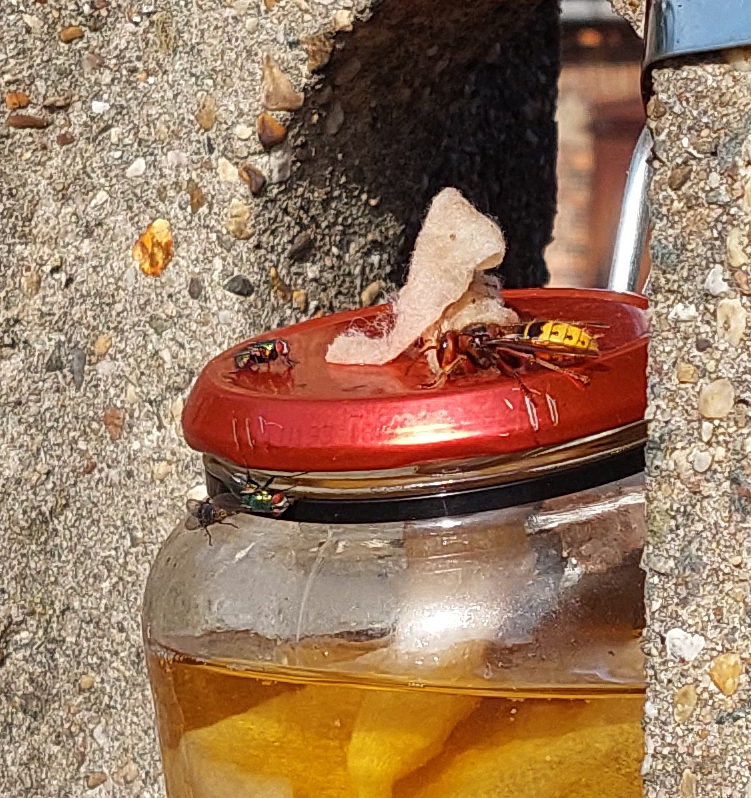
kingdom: Animalia
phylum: Arthropoda
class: Insecta
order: Hymenoptera
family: Vespidae
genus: Vespa
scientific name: Vespa crabro
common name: Hornet
